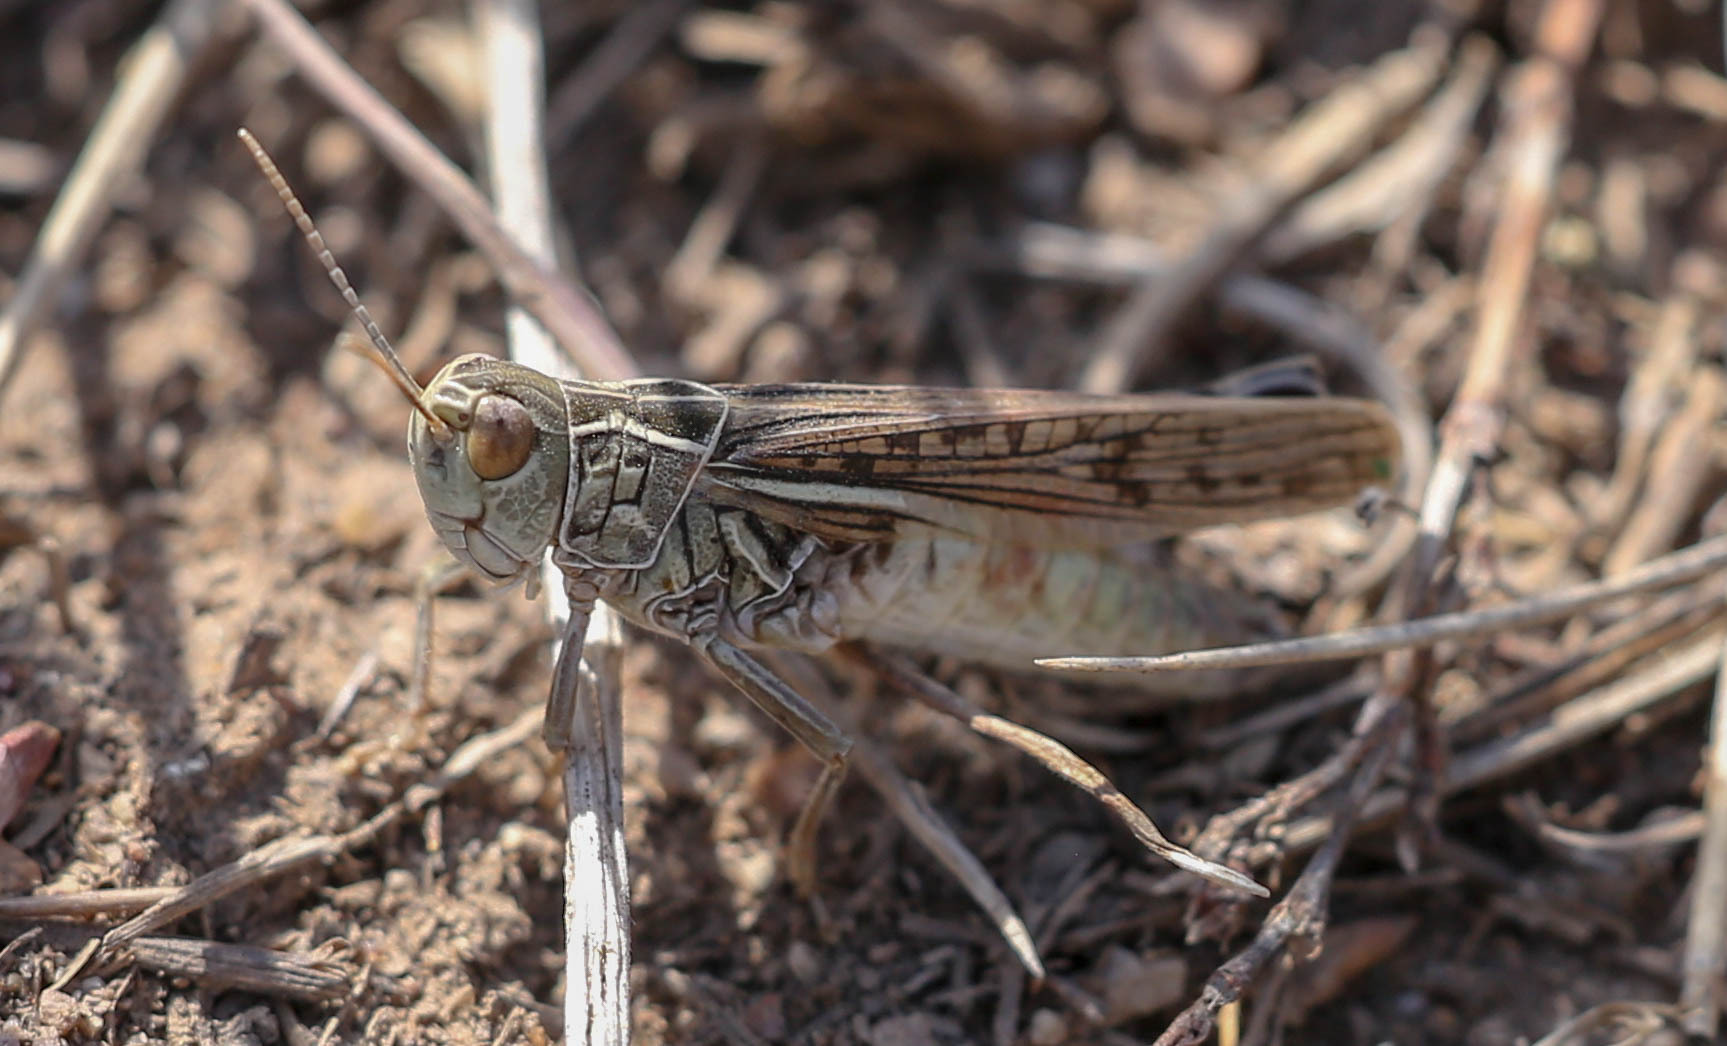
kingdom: Animalia
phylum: Arthropoda
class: Insecta
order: Orthoptera
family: Acrididae
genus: Arcyptera
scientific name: Arcyptera microptera
